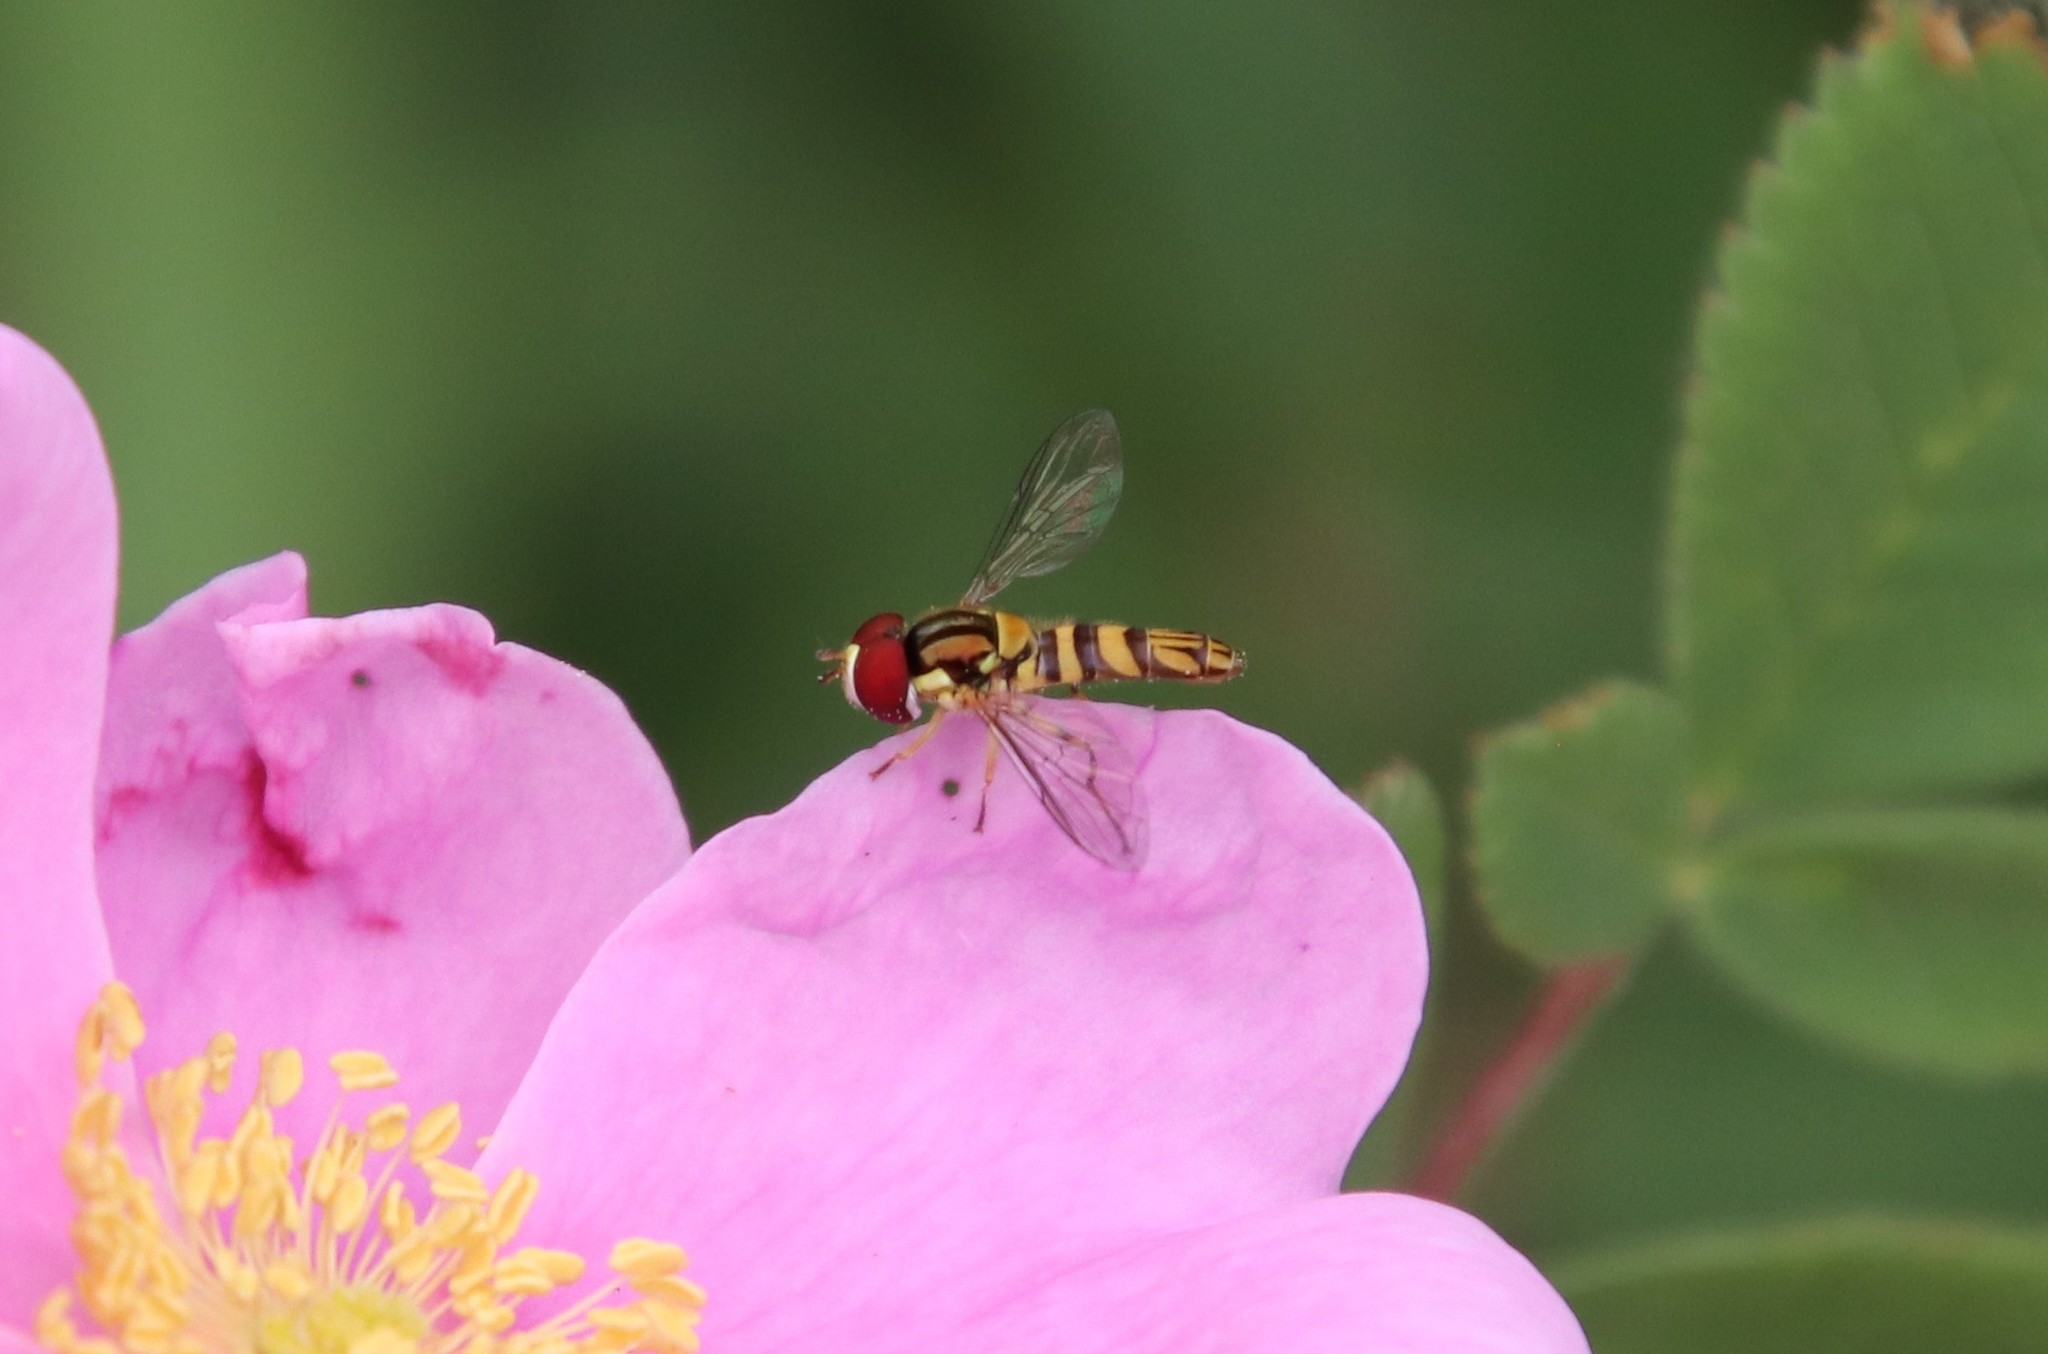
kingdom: Animalia
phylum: Arthropoda
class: Insecta
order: Diptera
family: Syrphidae
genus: Allograpta
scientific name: Allograpta obliqua
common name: Common oblique syrphid
